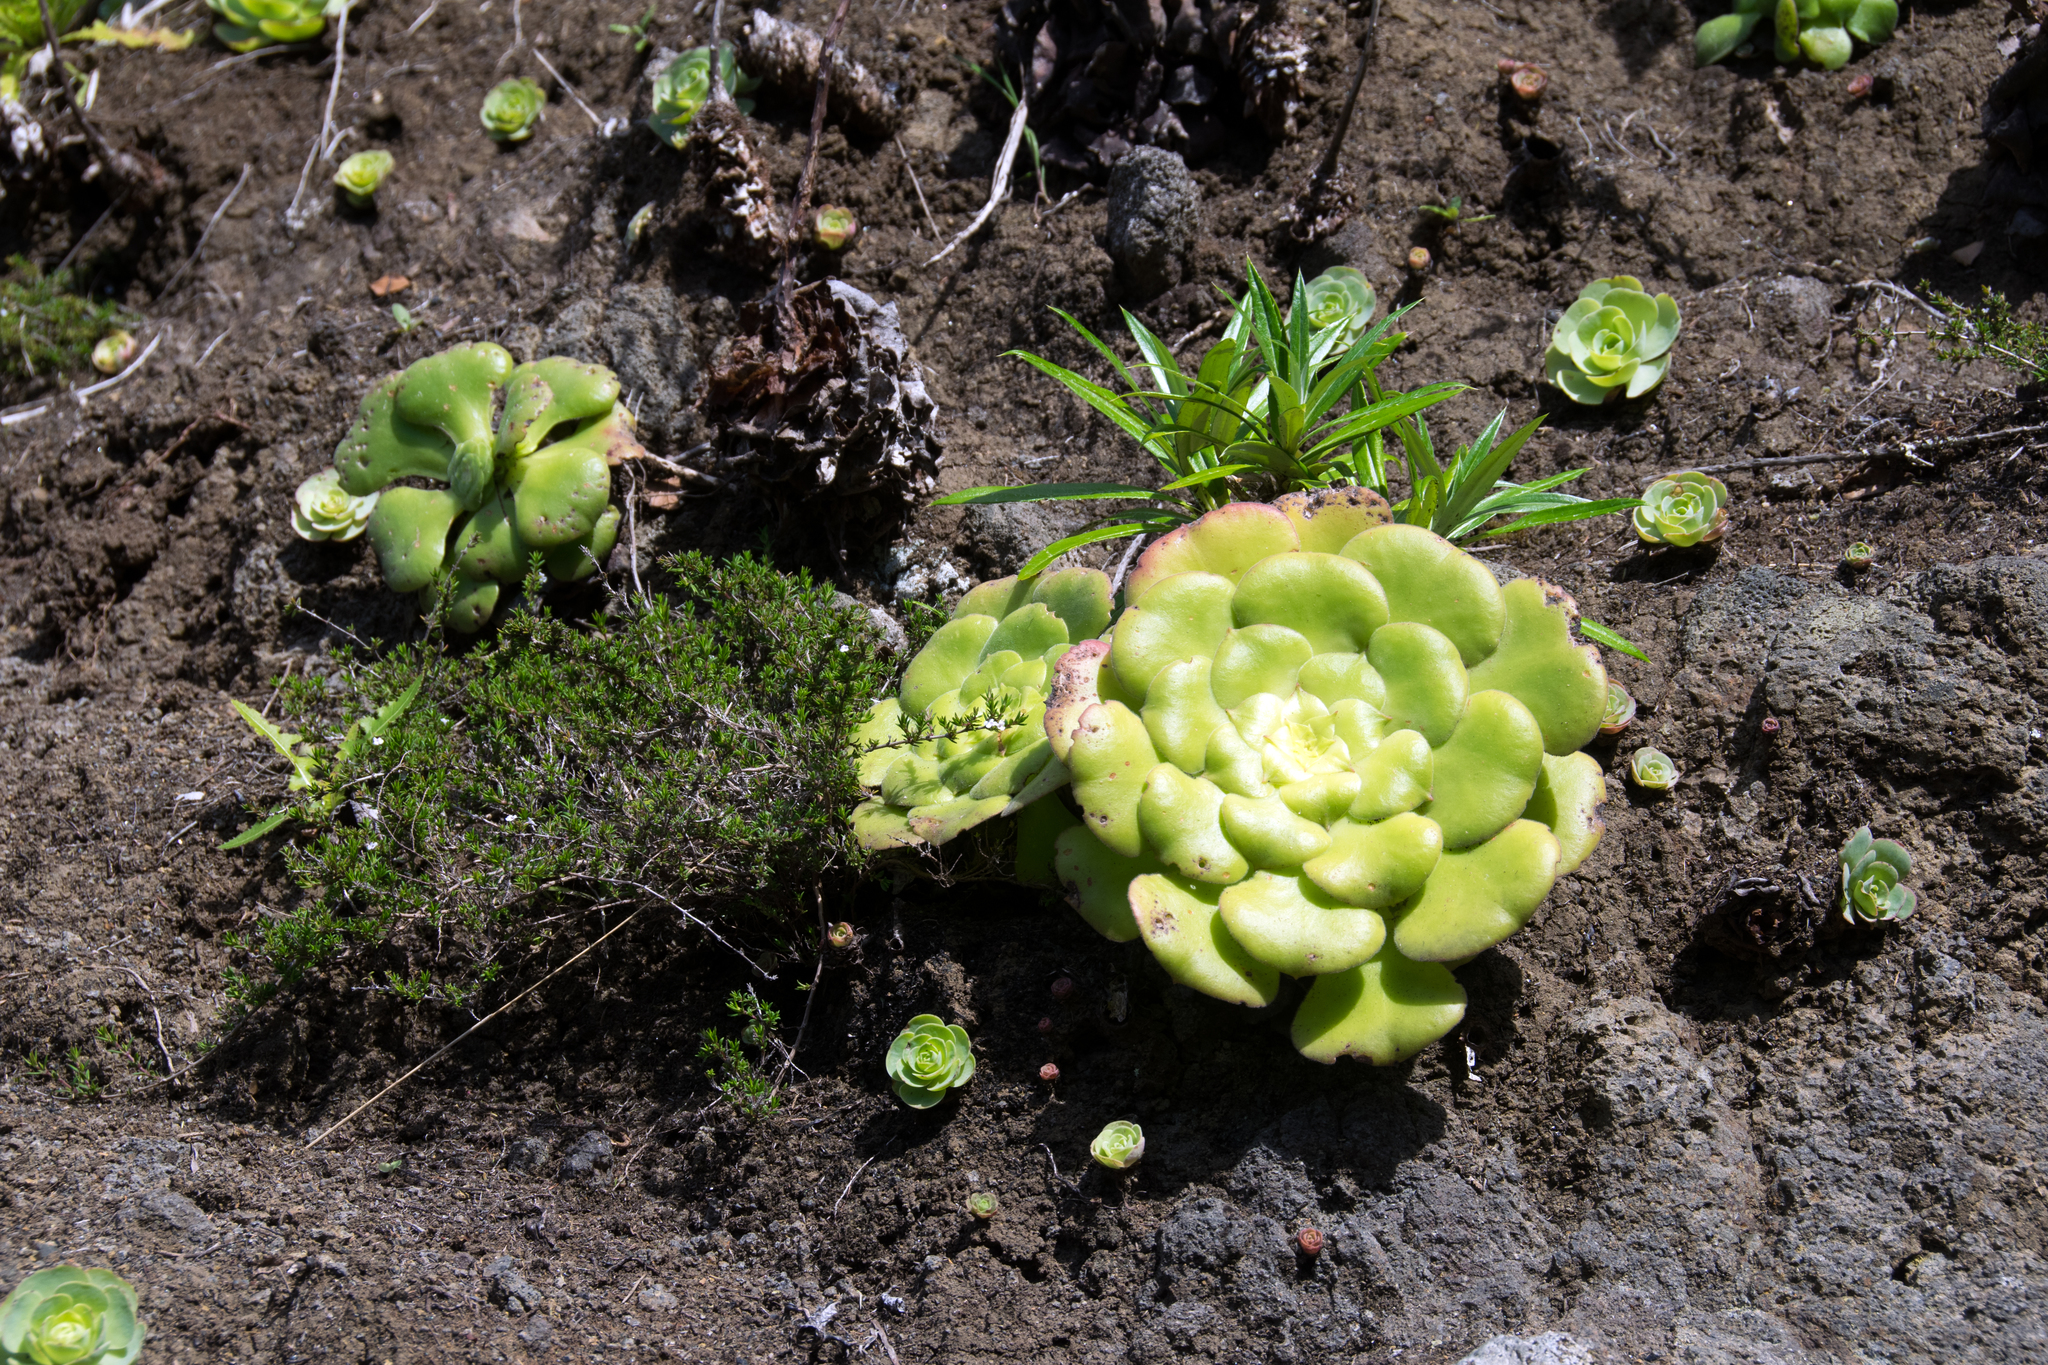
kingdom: Plantae
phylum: Tracheophyta
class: Magnoliopsida
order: Saxifragales
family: Crassulaceae
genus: Aeonium
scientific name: Aeonium canariense
